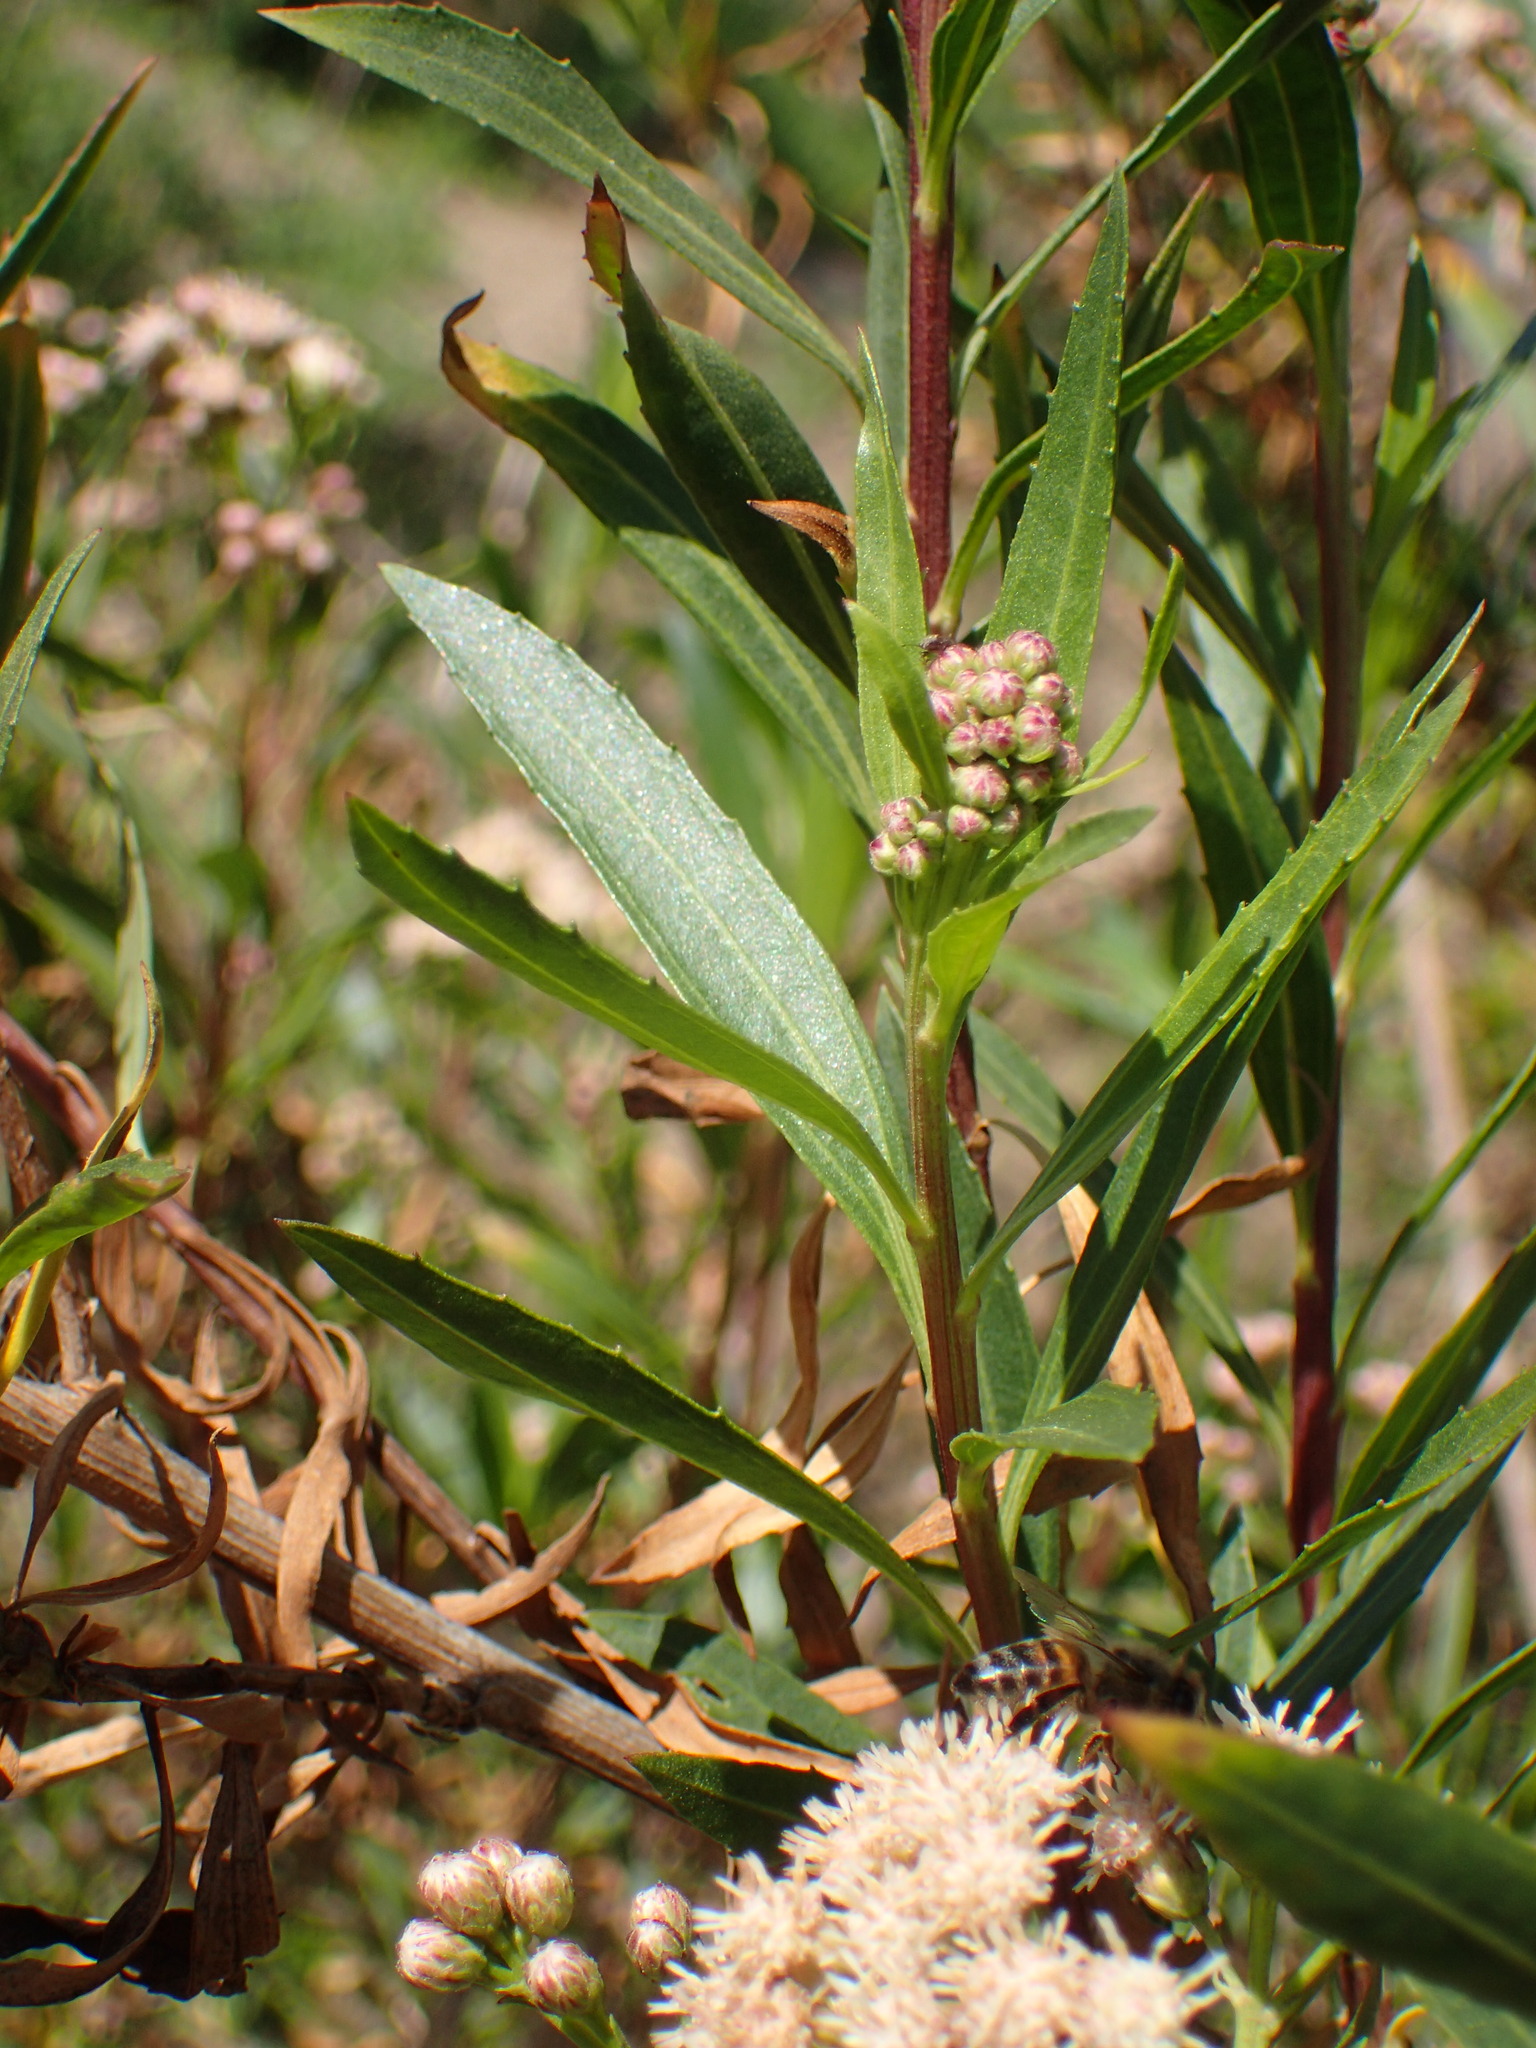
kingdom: Animalia
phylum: Arthropoda
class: Insecta
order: Hymenoptera
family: Apidae
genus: Apis
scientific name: Apis mellifera
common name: Honey bee
